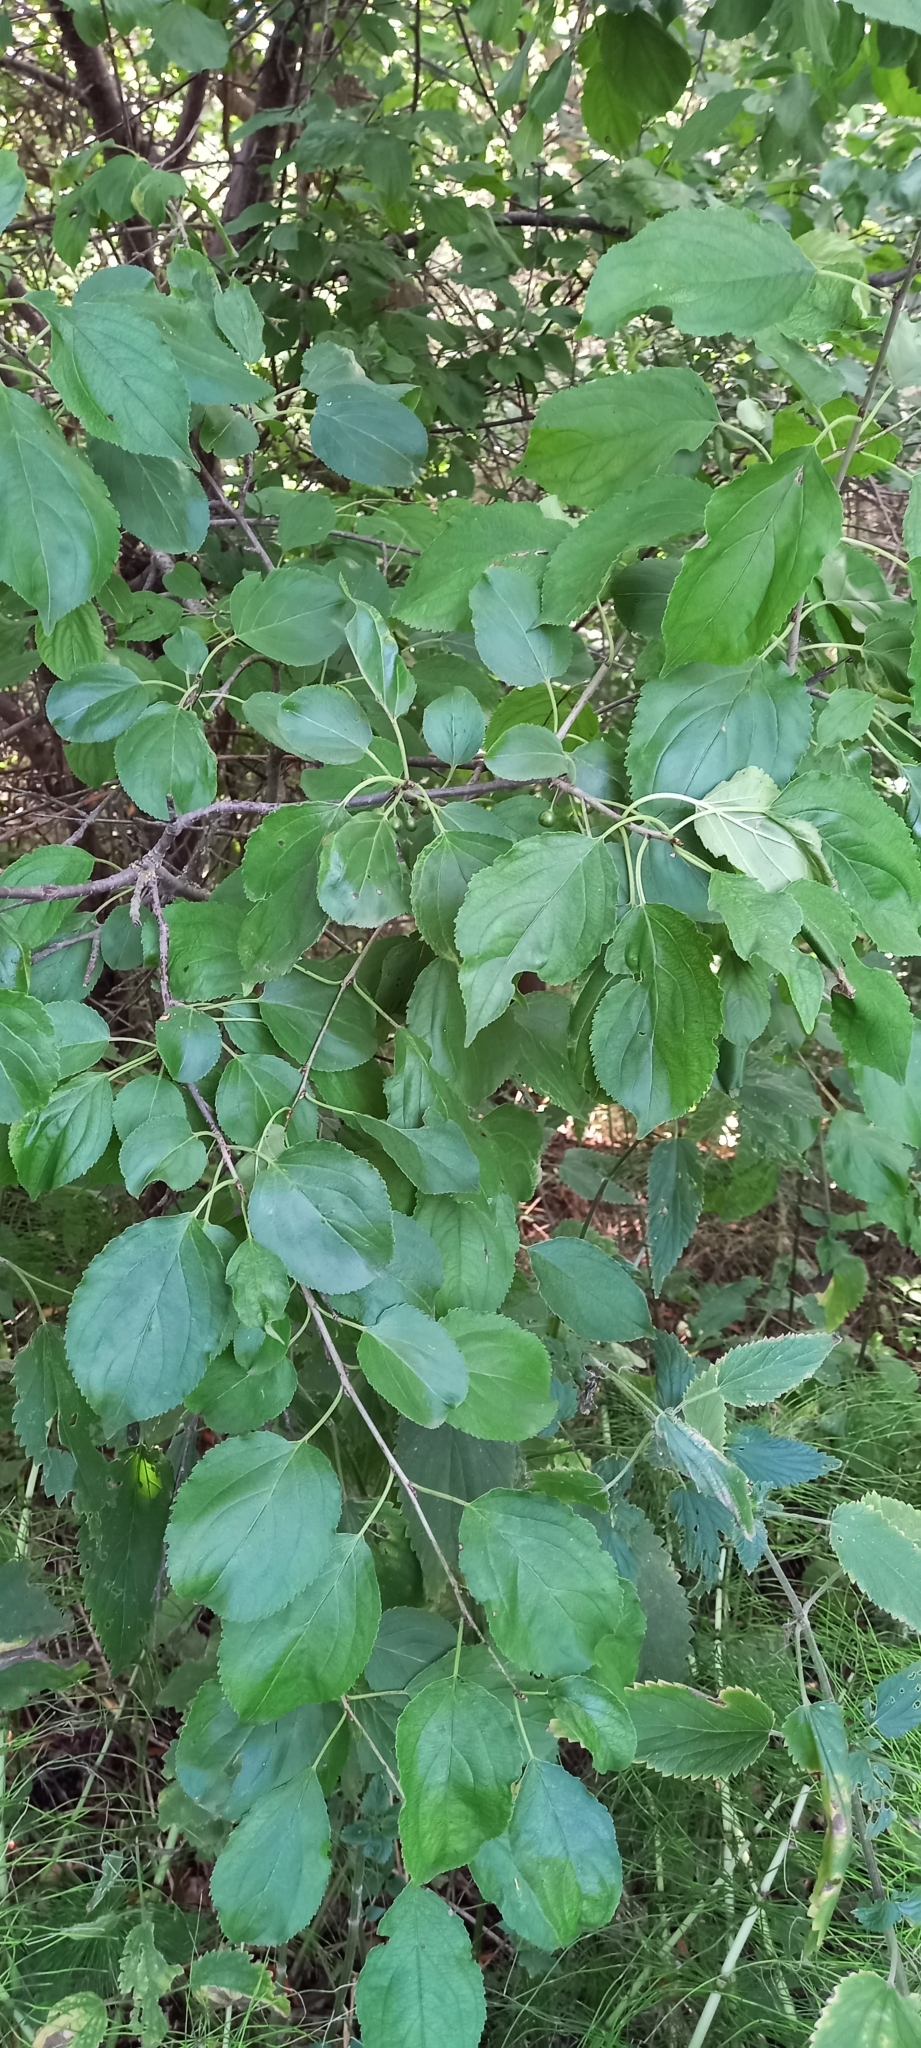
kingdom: Plantae
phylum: Tracheophyta
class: Magnoliopsida
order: Rosales
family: Rhamnaceae
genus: Rhamnus
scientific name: Rhamnus cathartica
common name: Common buckthorn
